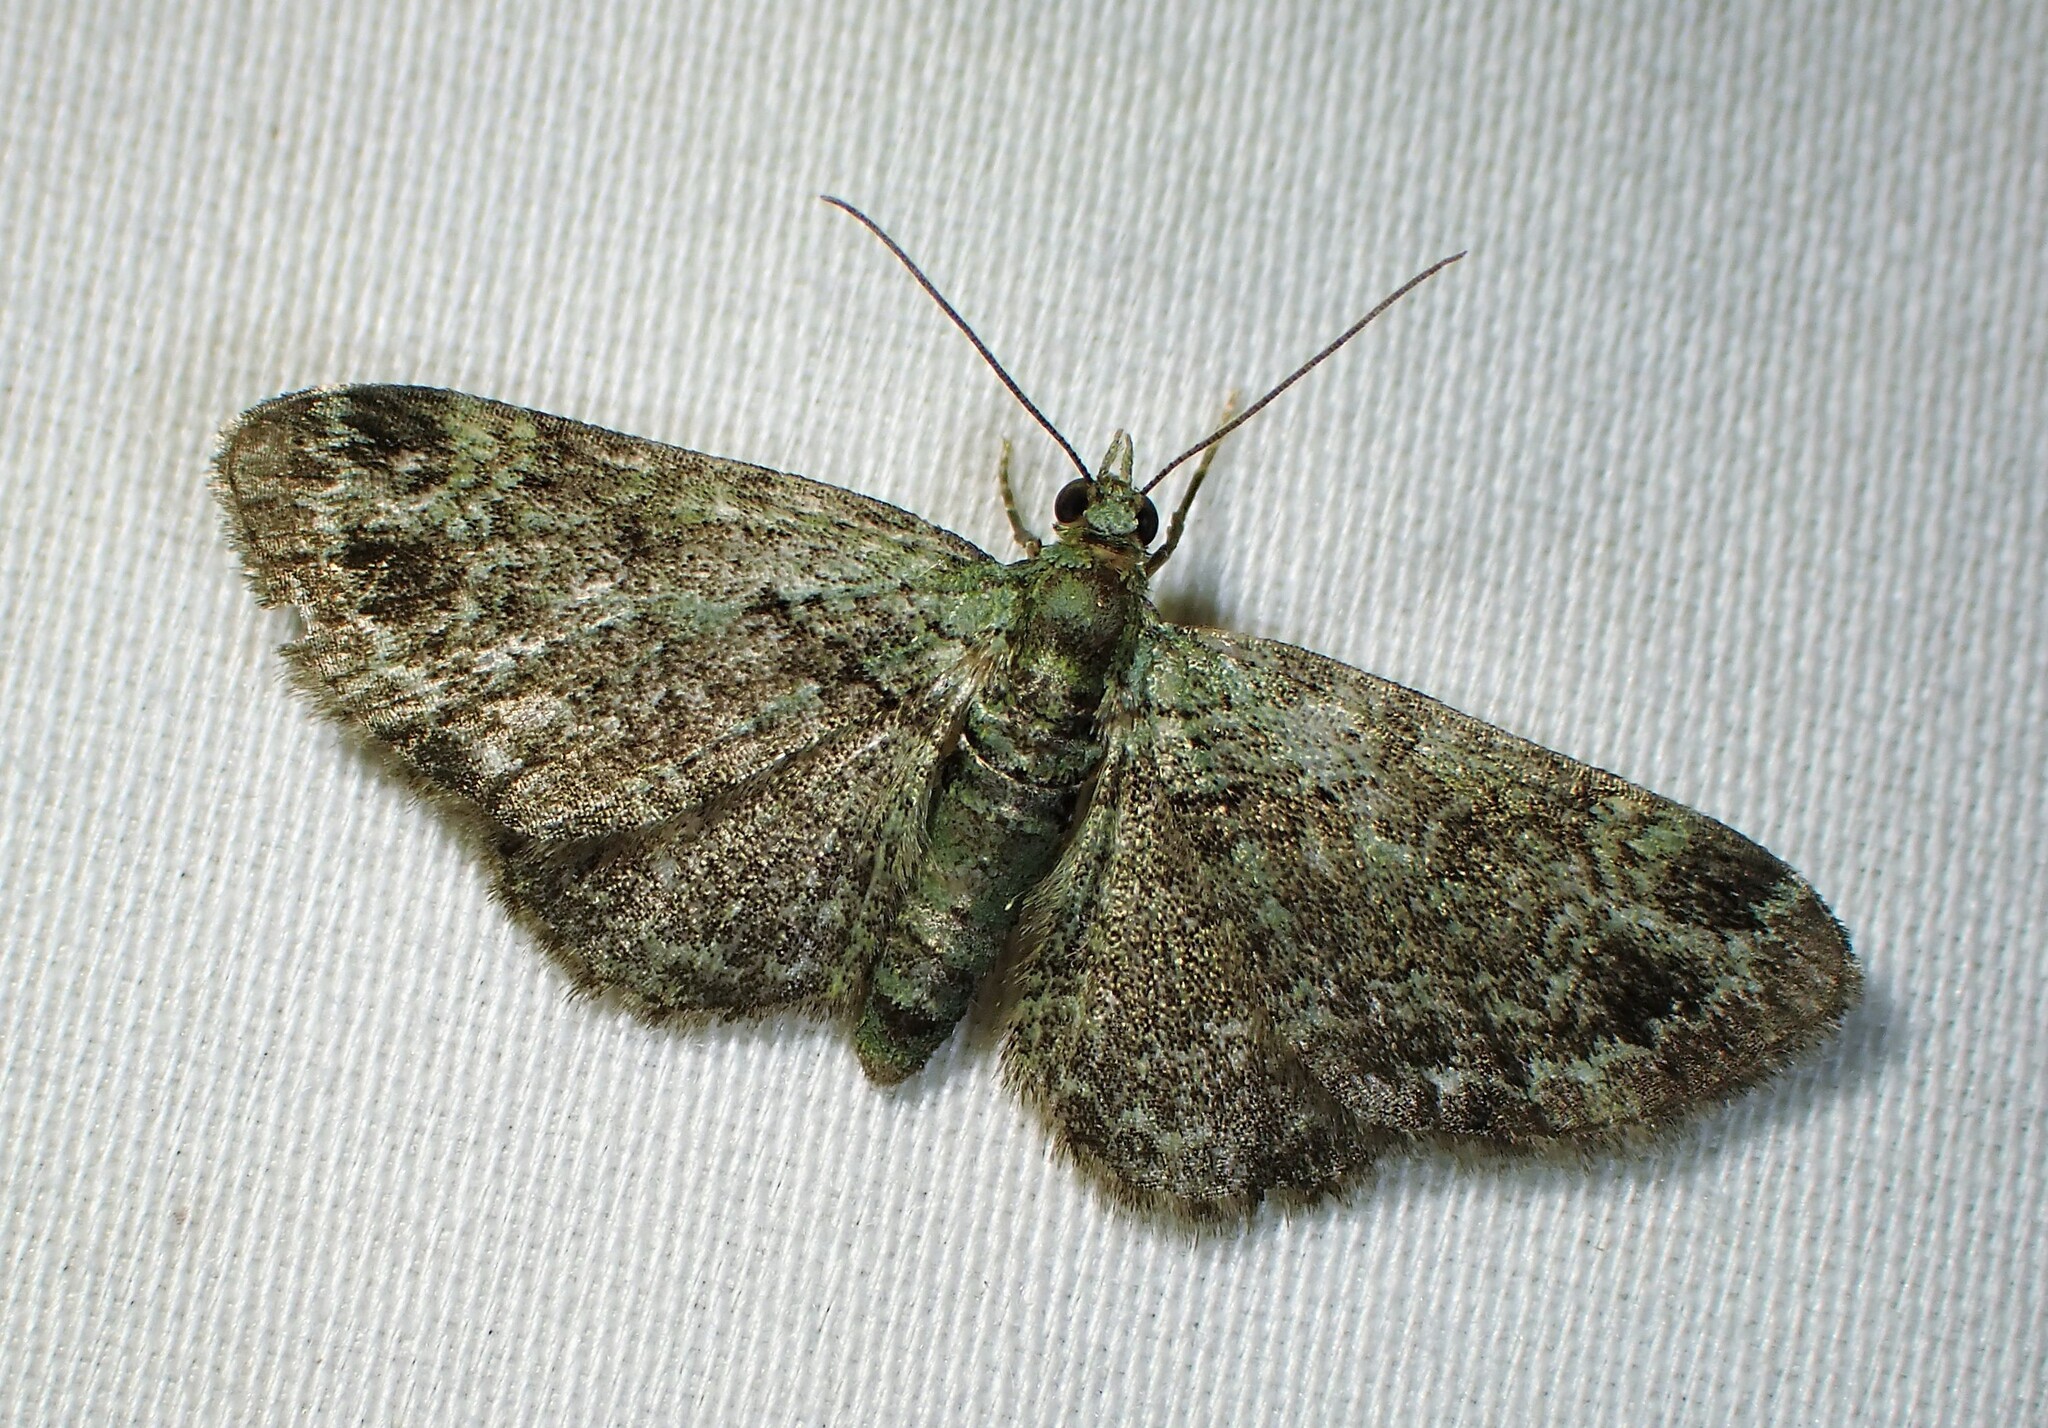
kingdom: Animalia
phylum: Arthropoda
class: Insecta
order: Lepidoptera
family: Geometridae
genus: Pasiphila
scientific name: Pasiphila rectangulata
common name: Green pug
